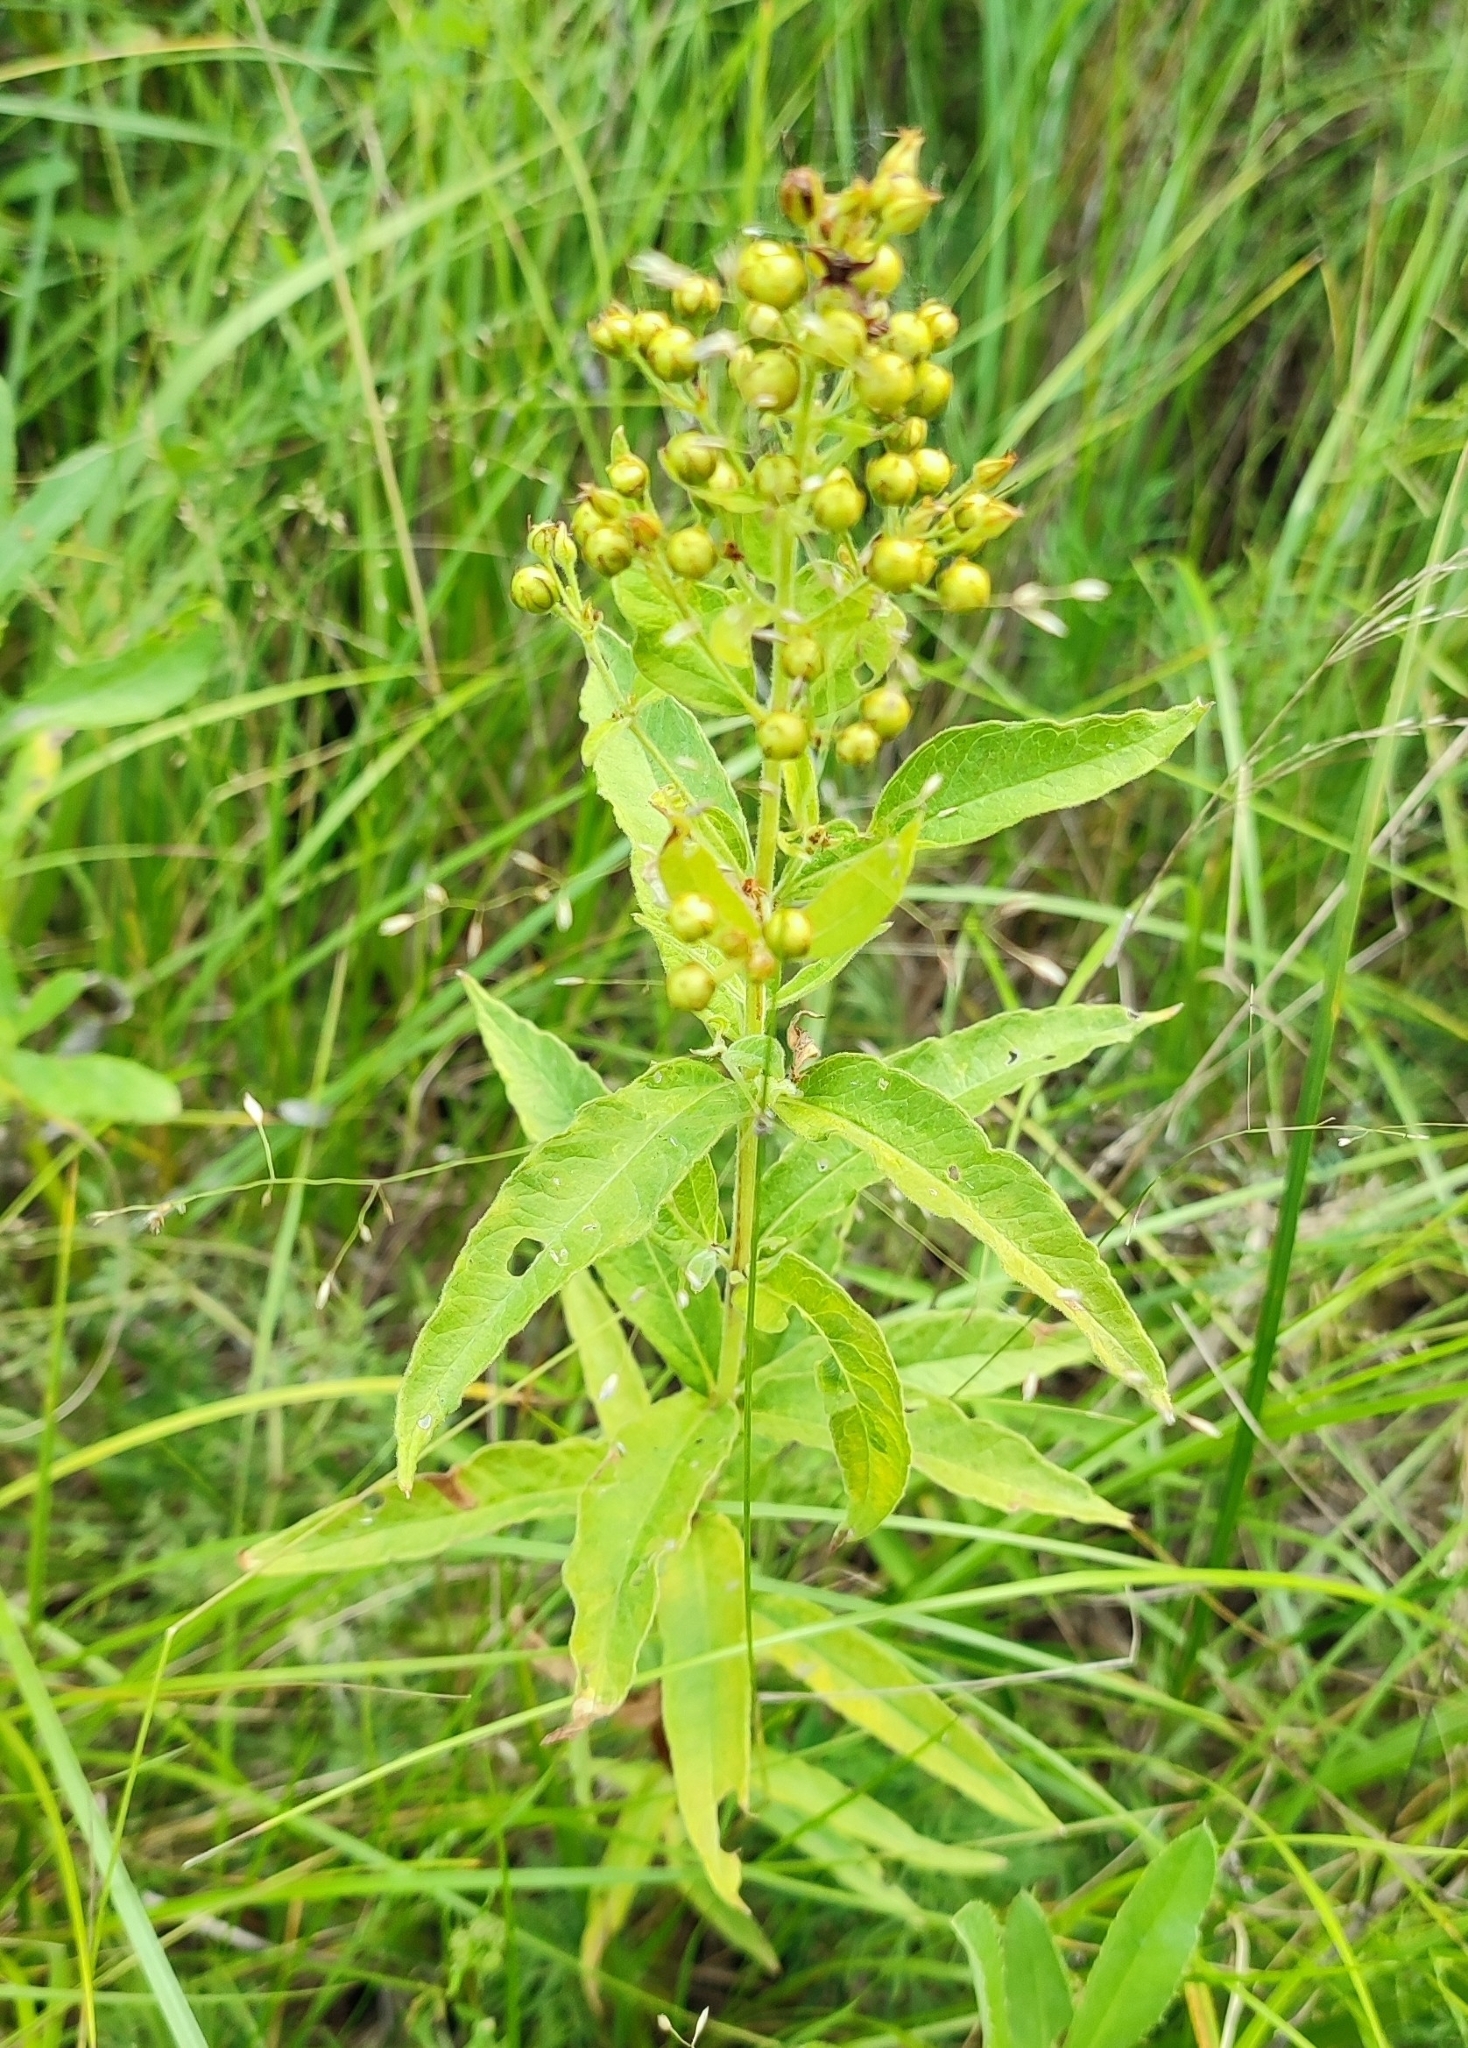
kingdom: Plantae
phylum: Tracheophyta
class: Magnoliopsida
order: Ericales
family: Primulaceae
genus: Lysimachia
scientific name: Lysimachia vulgaris
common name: Yellow loosestrife
